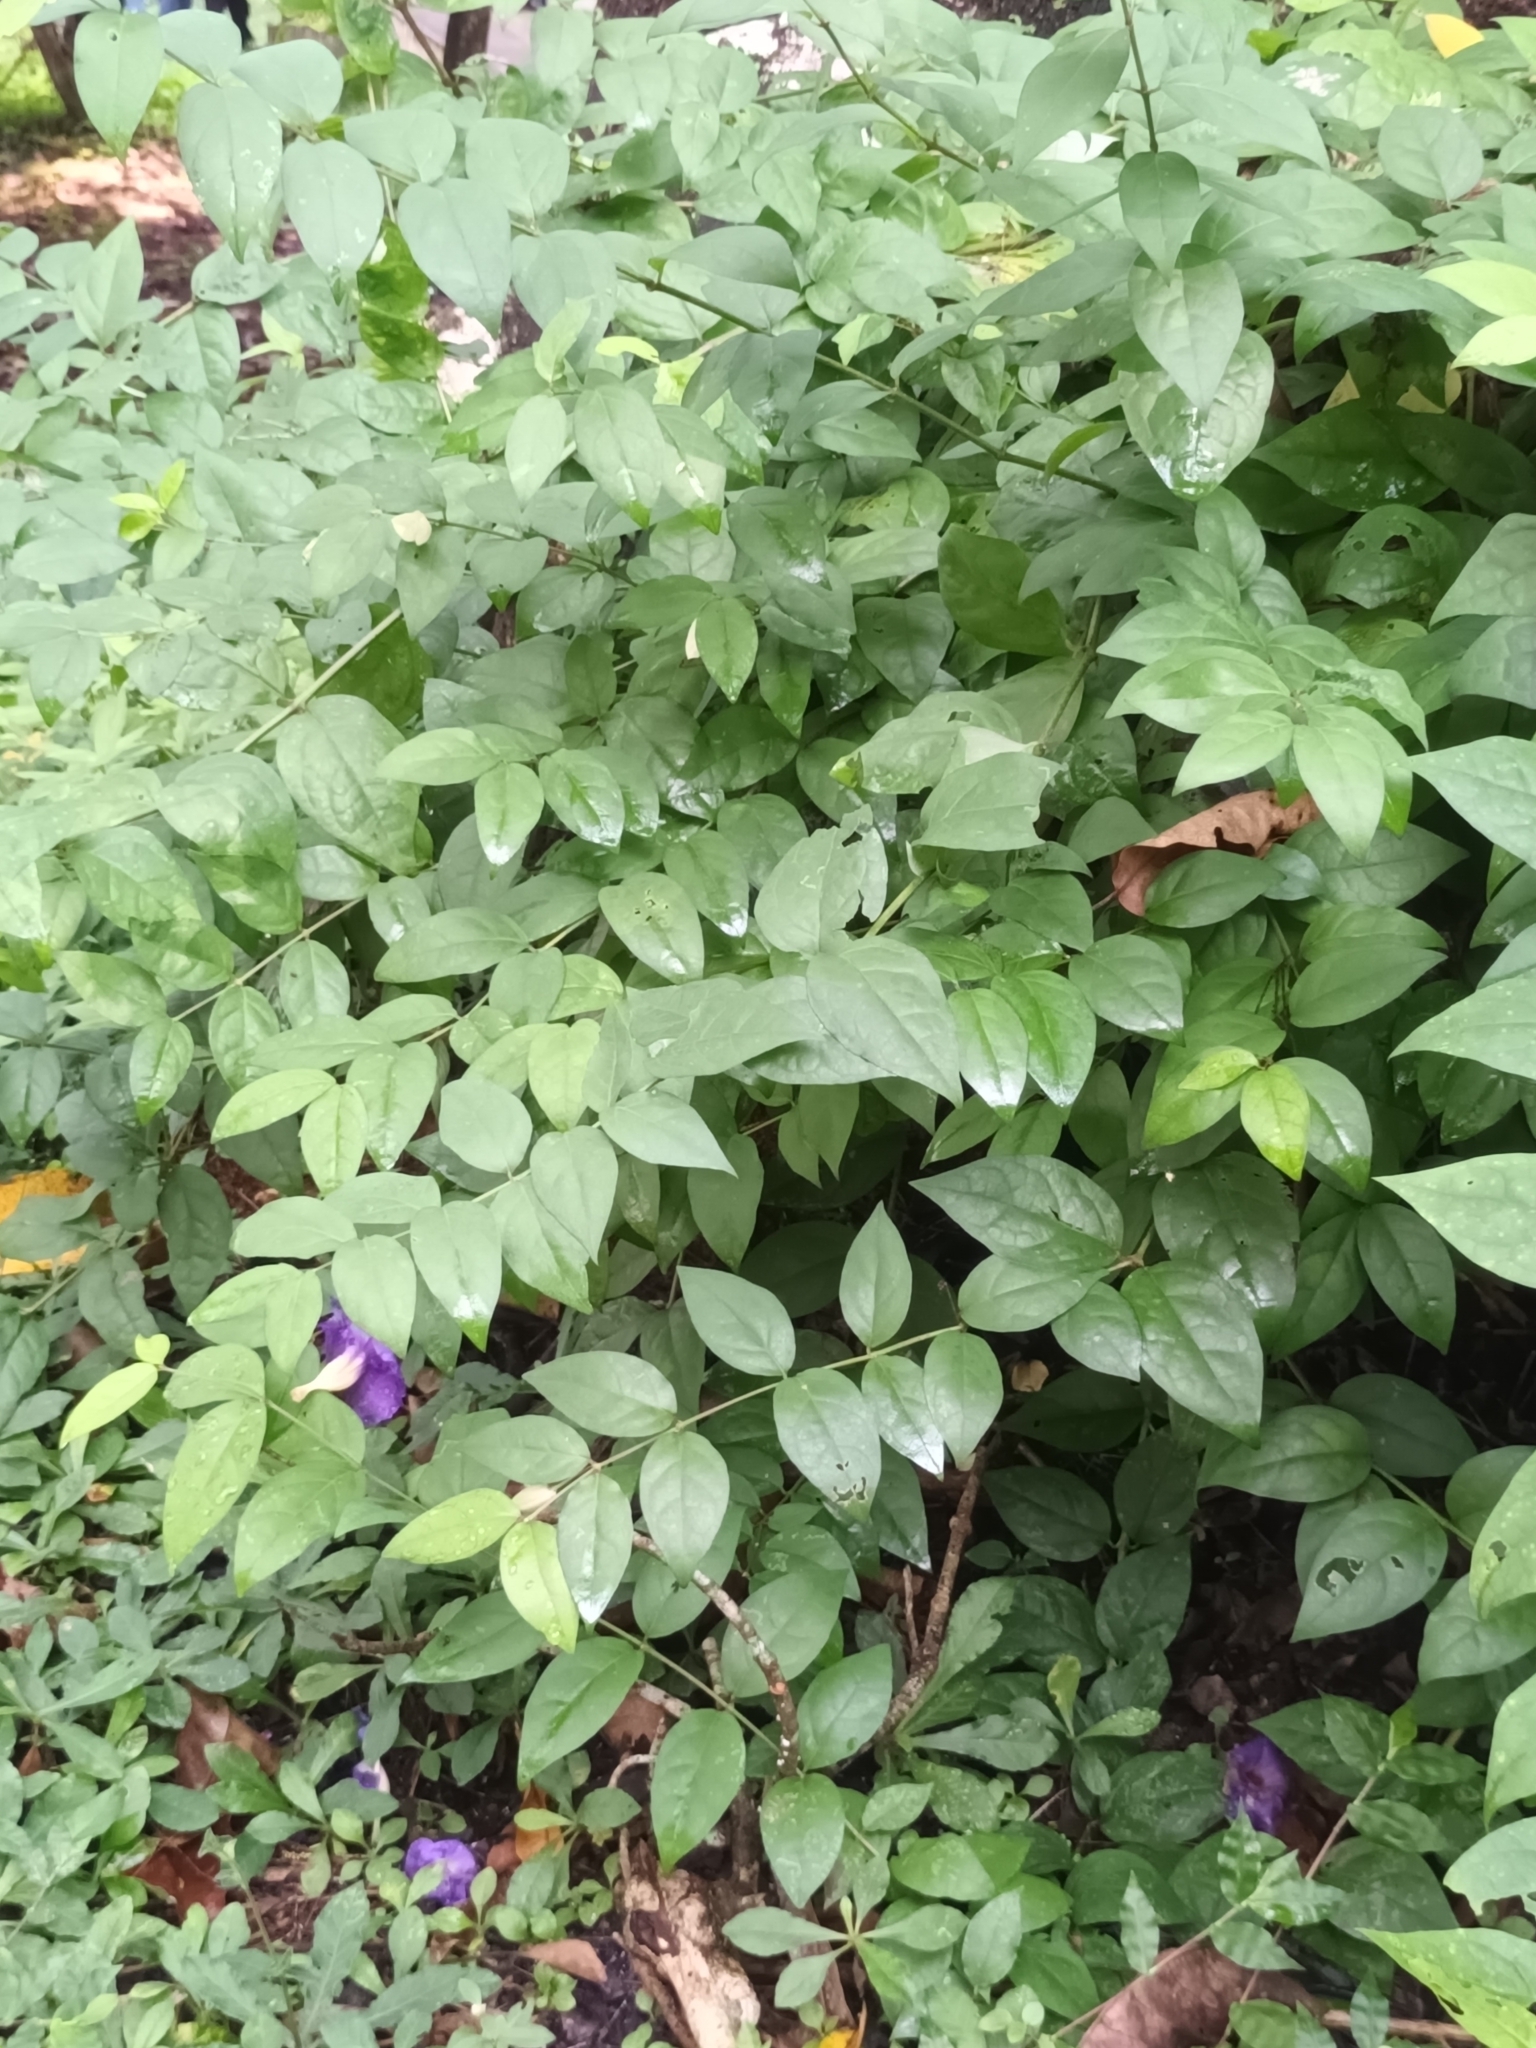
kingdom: Plantae
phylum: Tracheophyta
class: Magnoliopsida
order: Lamiales
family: Acanthaceae
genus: Thunbergia
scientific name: Thunbergia erecta
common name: Bush clockvine
